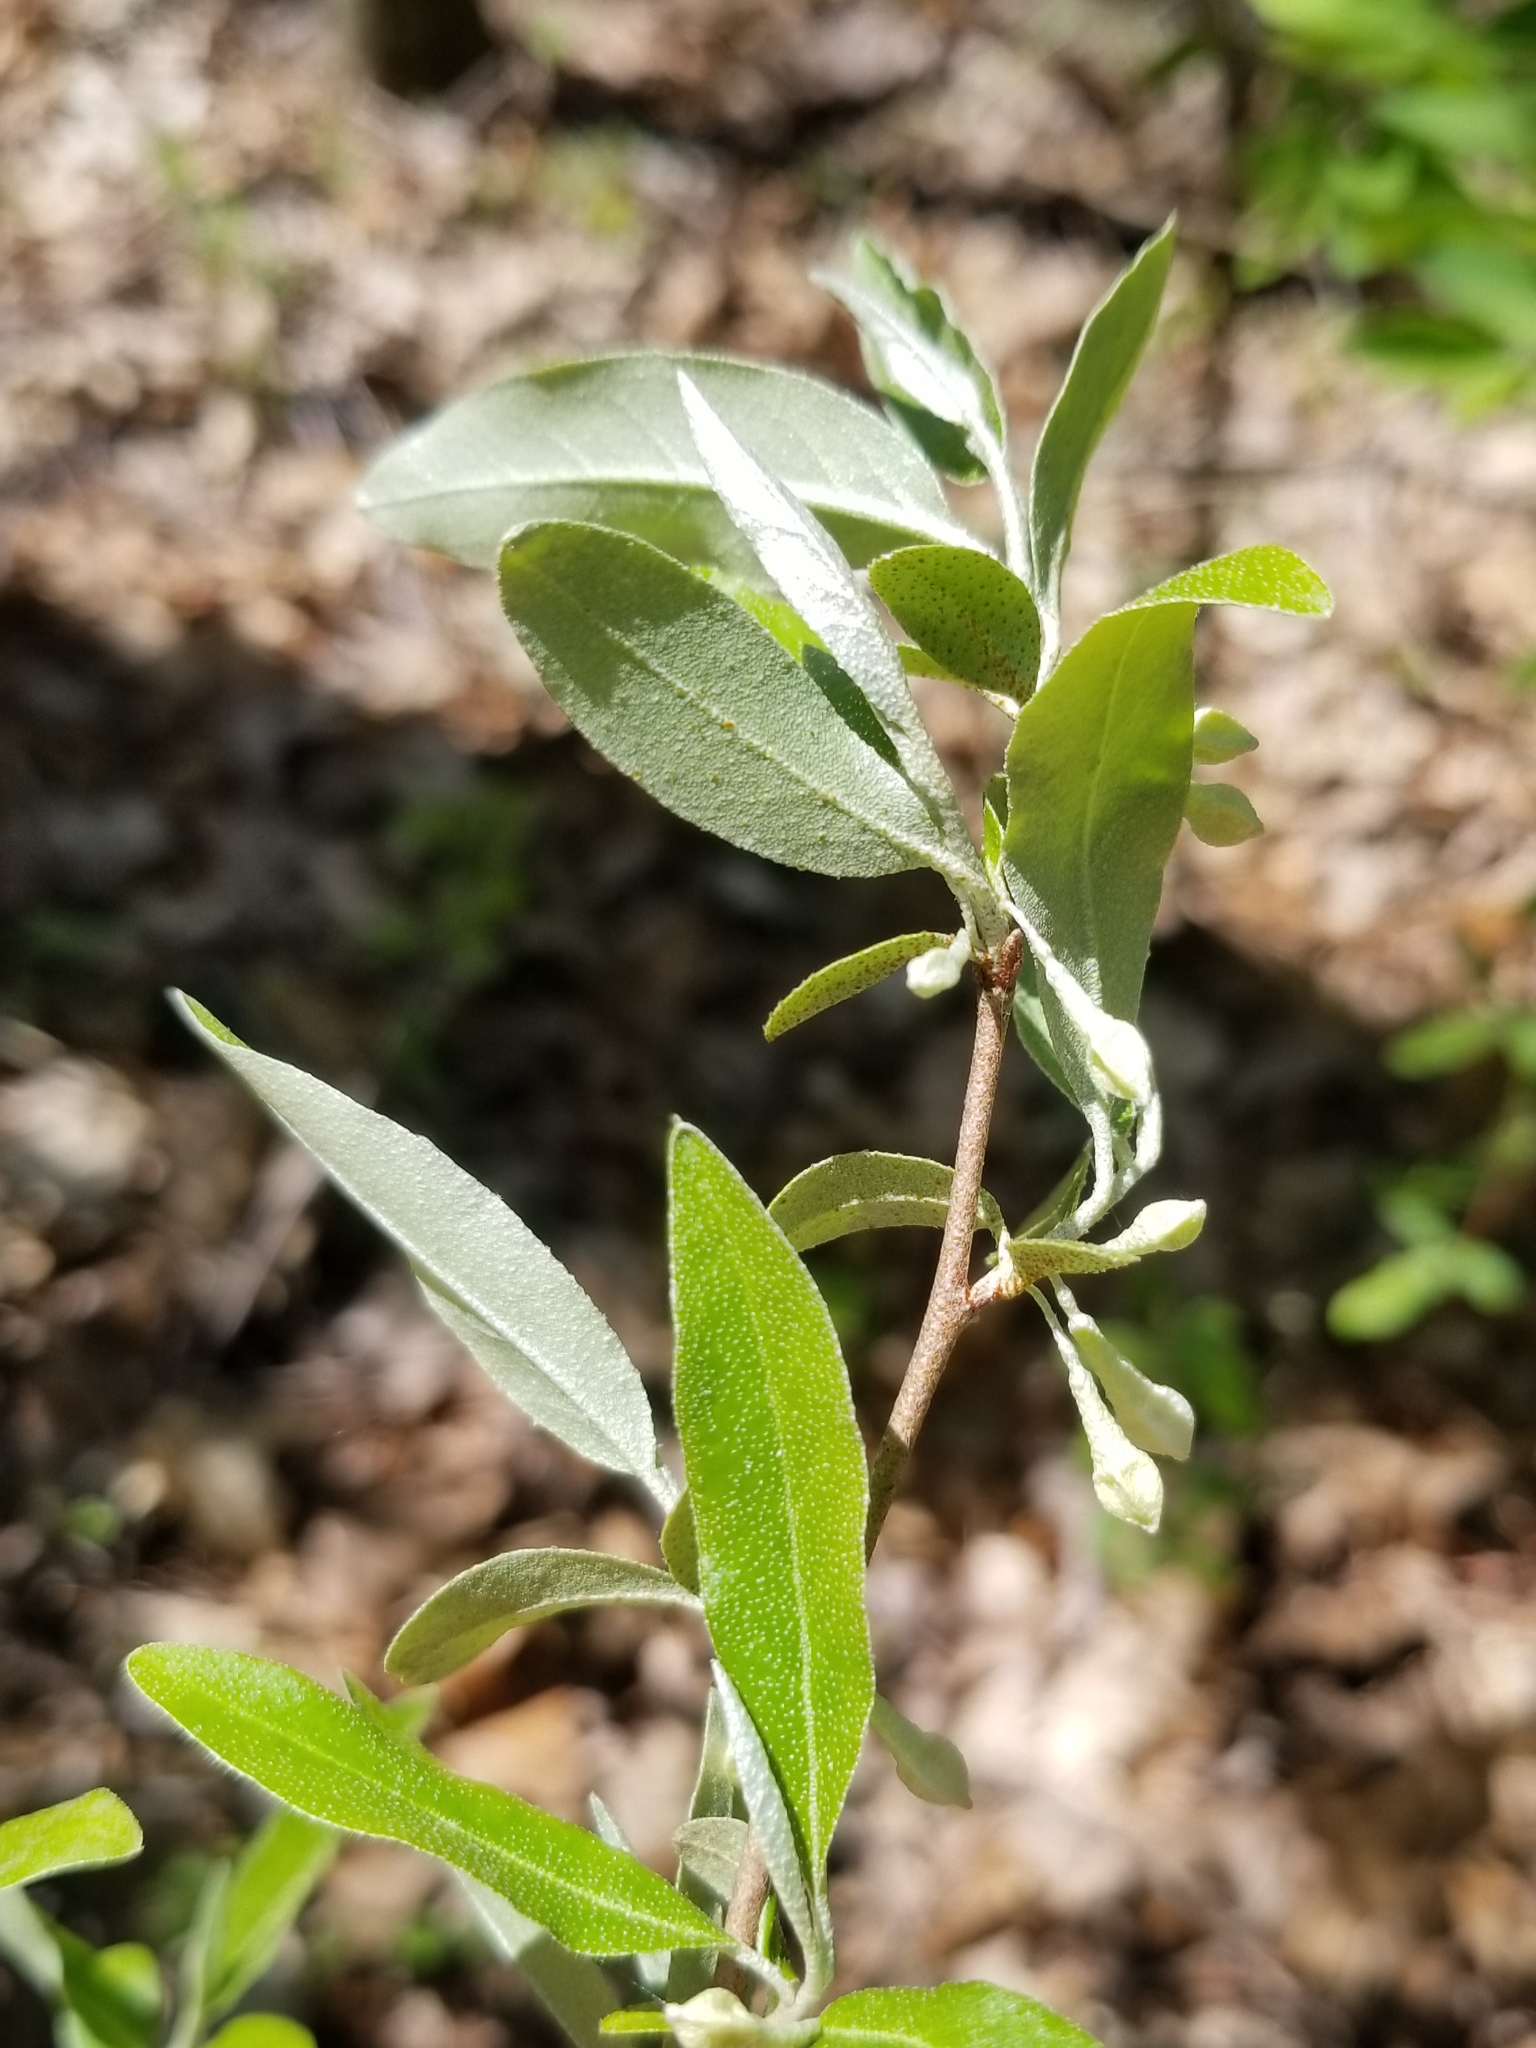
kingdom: Plantae
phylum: Tracheophyta
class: Magnoliopsida
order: Rosales
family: Elaeagnaceae
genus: Elaeagnus
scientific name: Elaeagnus umbellata
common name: Autumn olive
